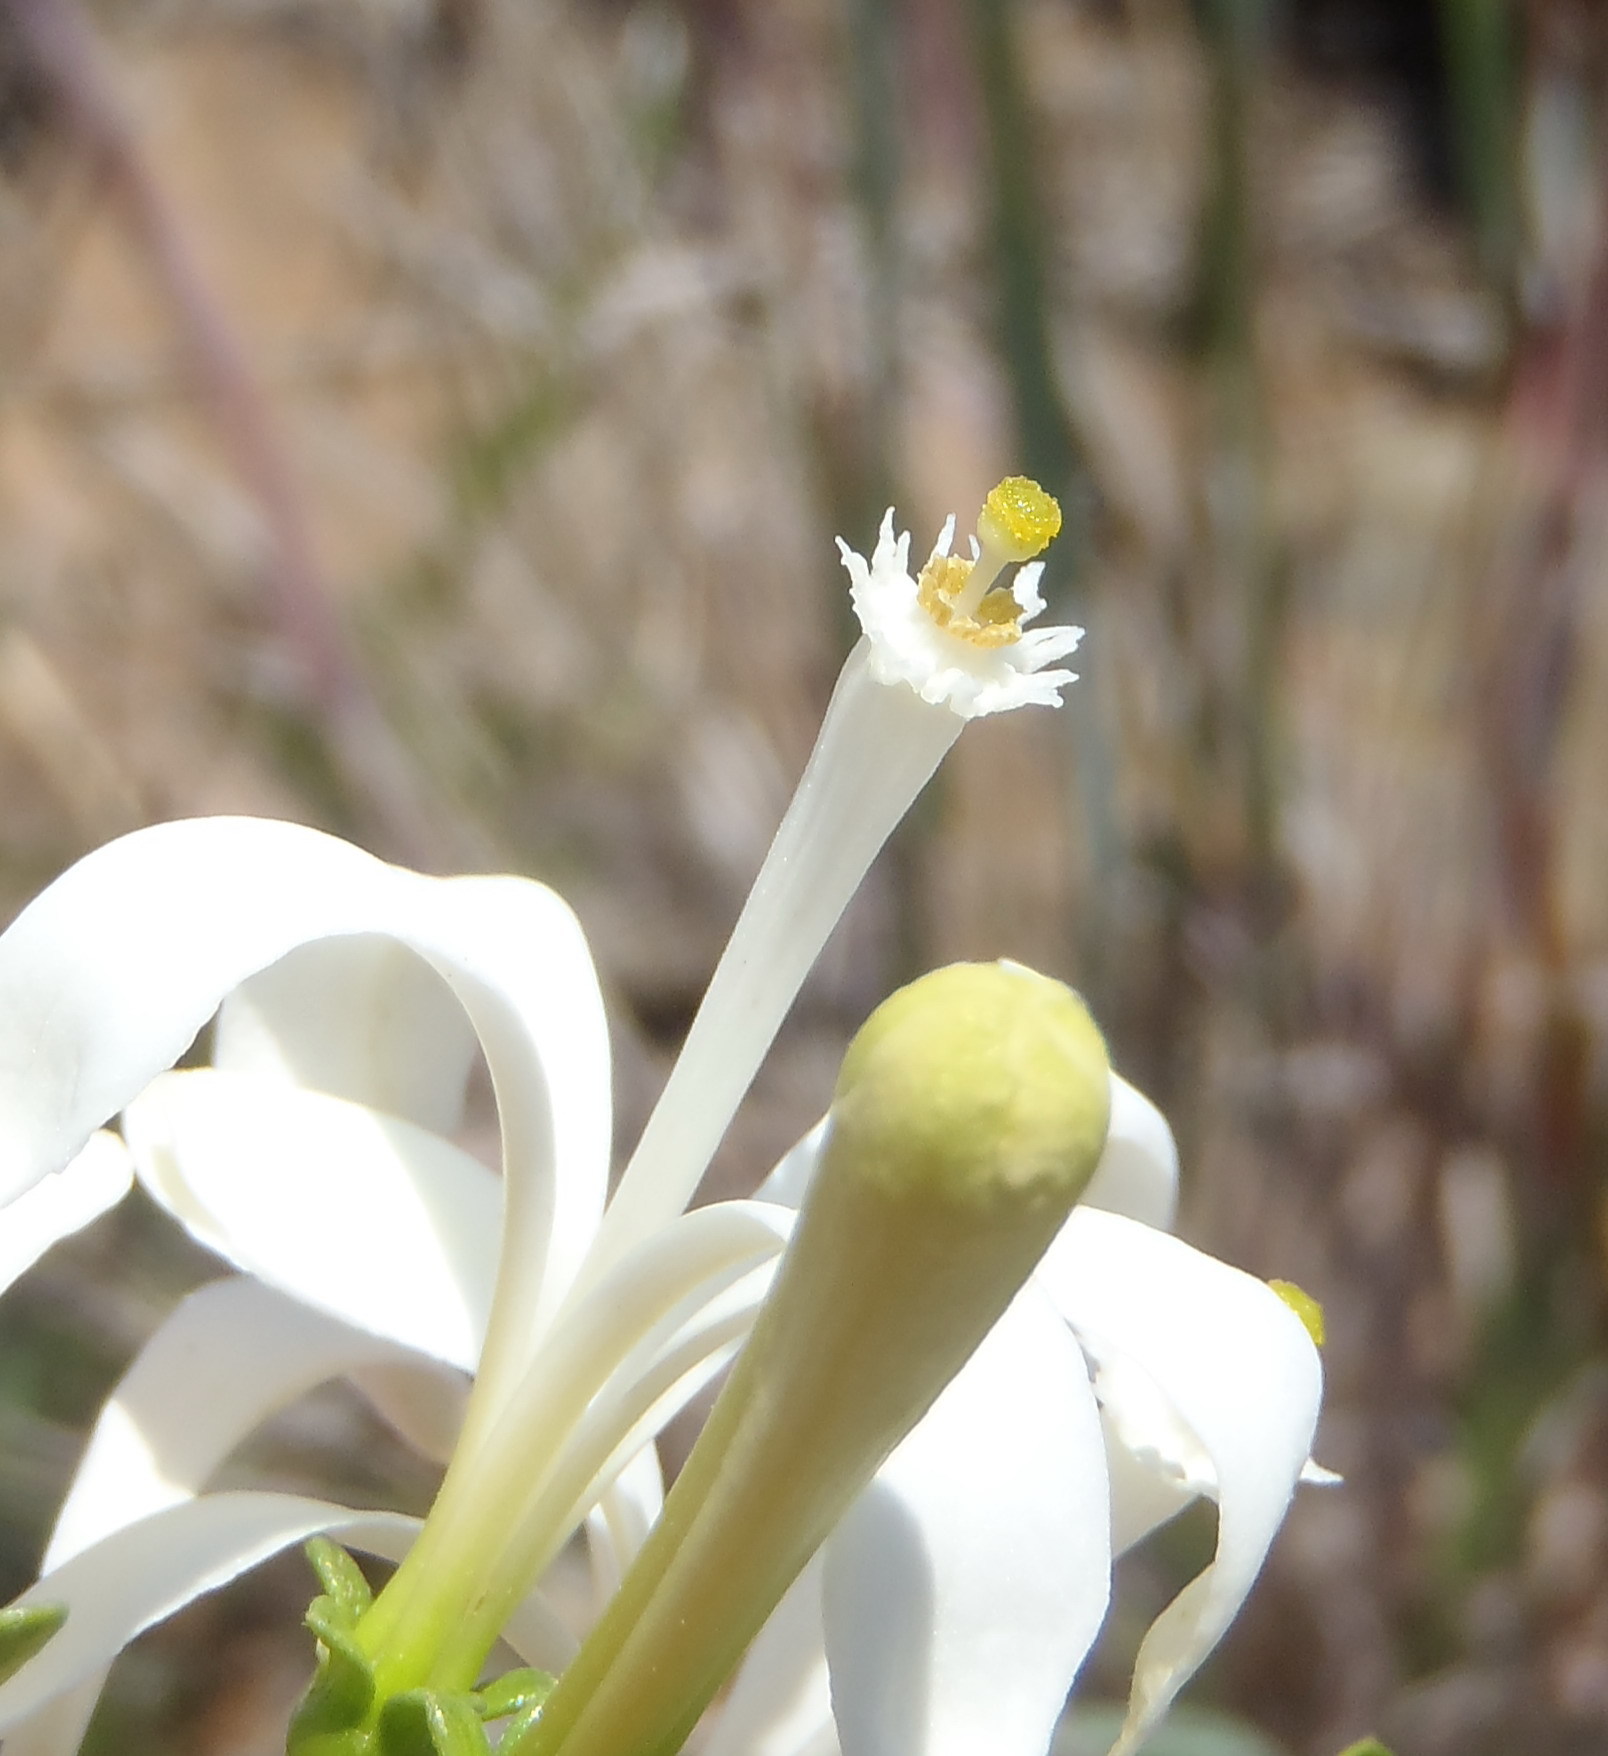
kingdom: Plantae
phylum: Tracheophyta
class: Magnoliopsida
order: Sapindales
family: Meliaceae
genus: Turraea
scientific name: Turraea obtusifolia
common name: Small honeysuckle tree
